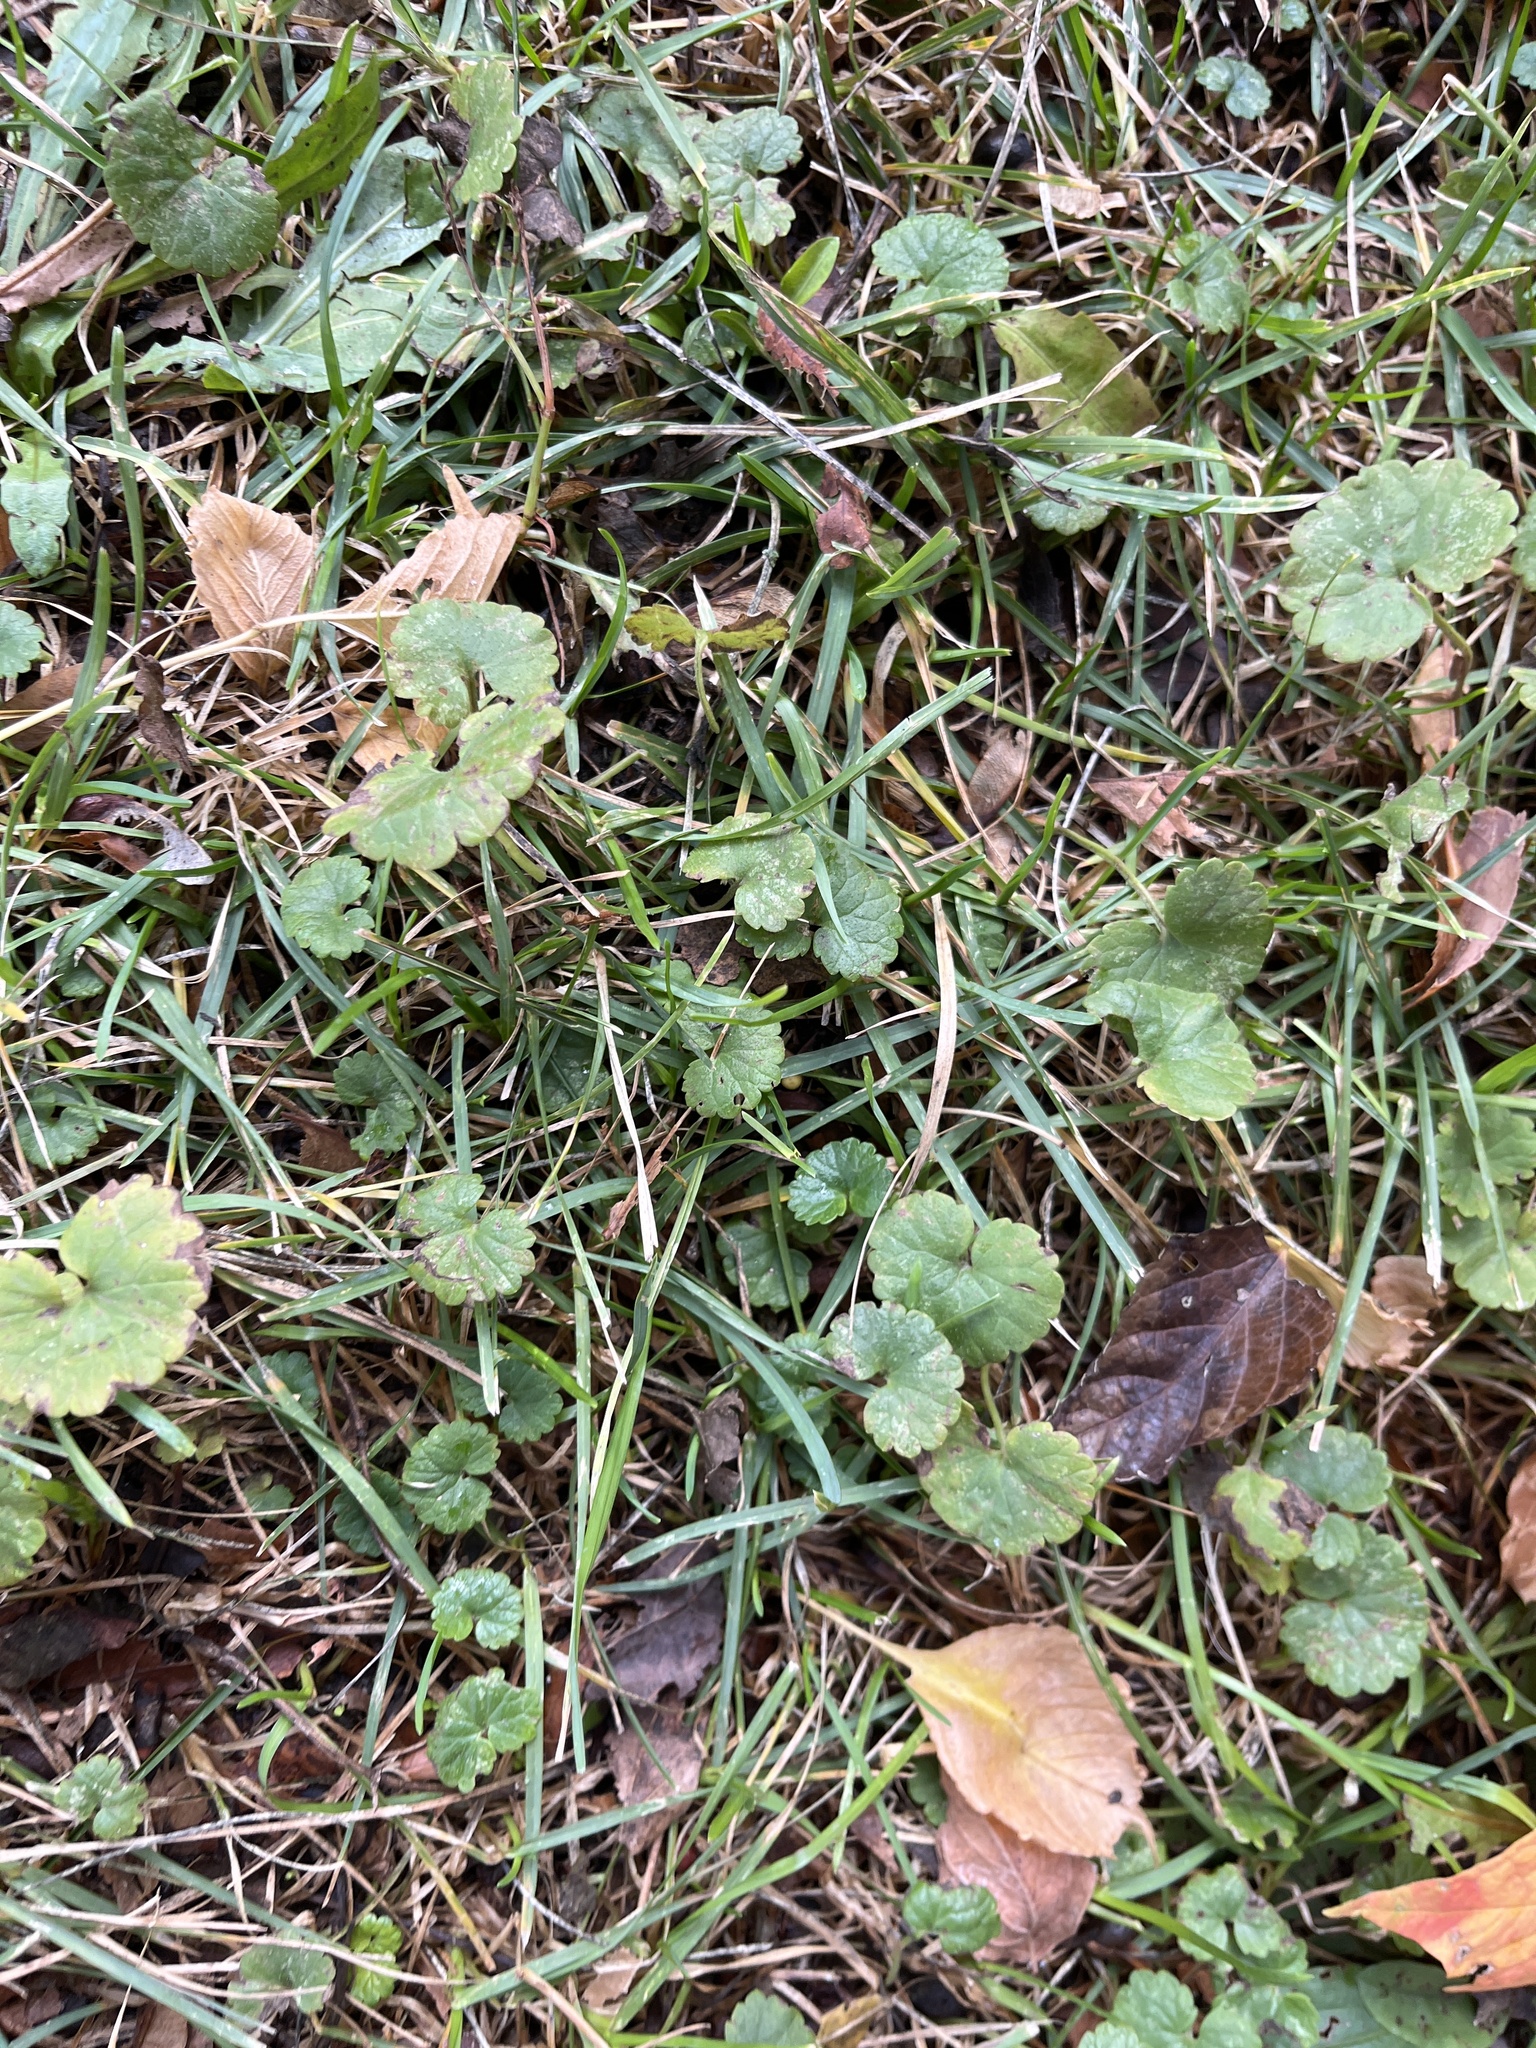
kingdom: Plantae
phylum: Tracheophyta
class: Magnoliopsida
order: Lamiales
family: Lamiaceae
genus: Glechoma
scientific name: Glechoma hederacea
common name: Ground ivy
